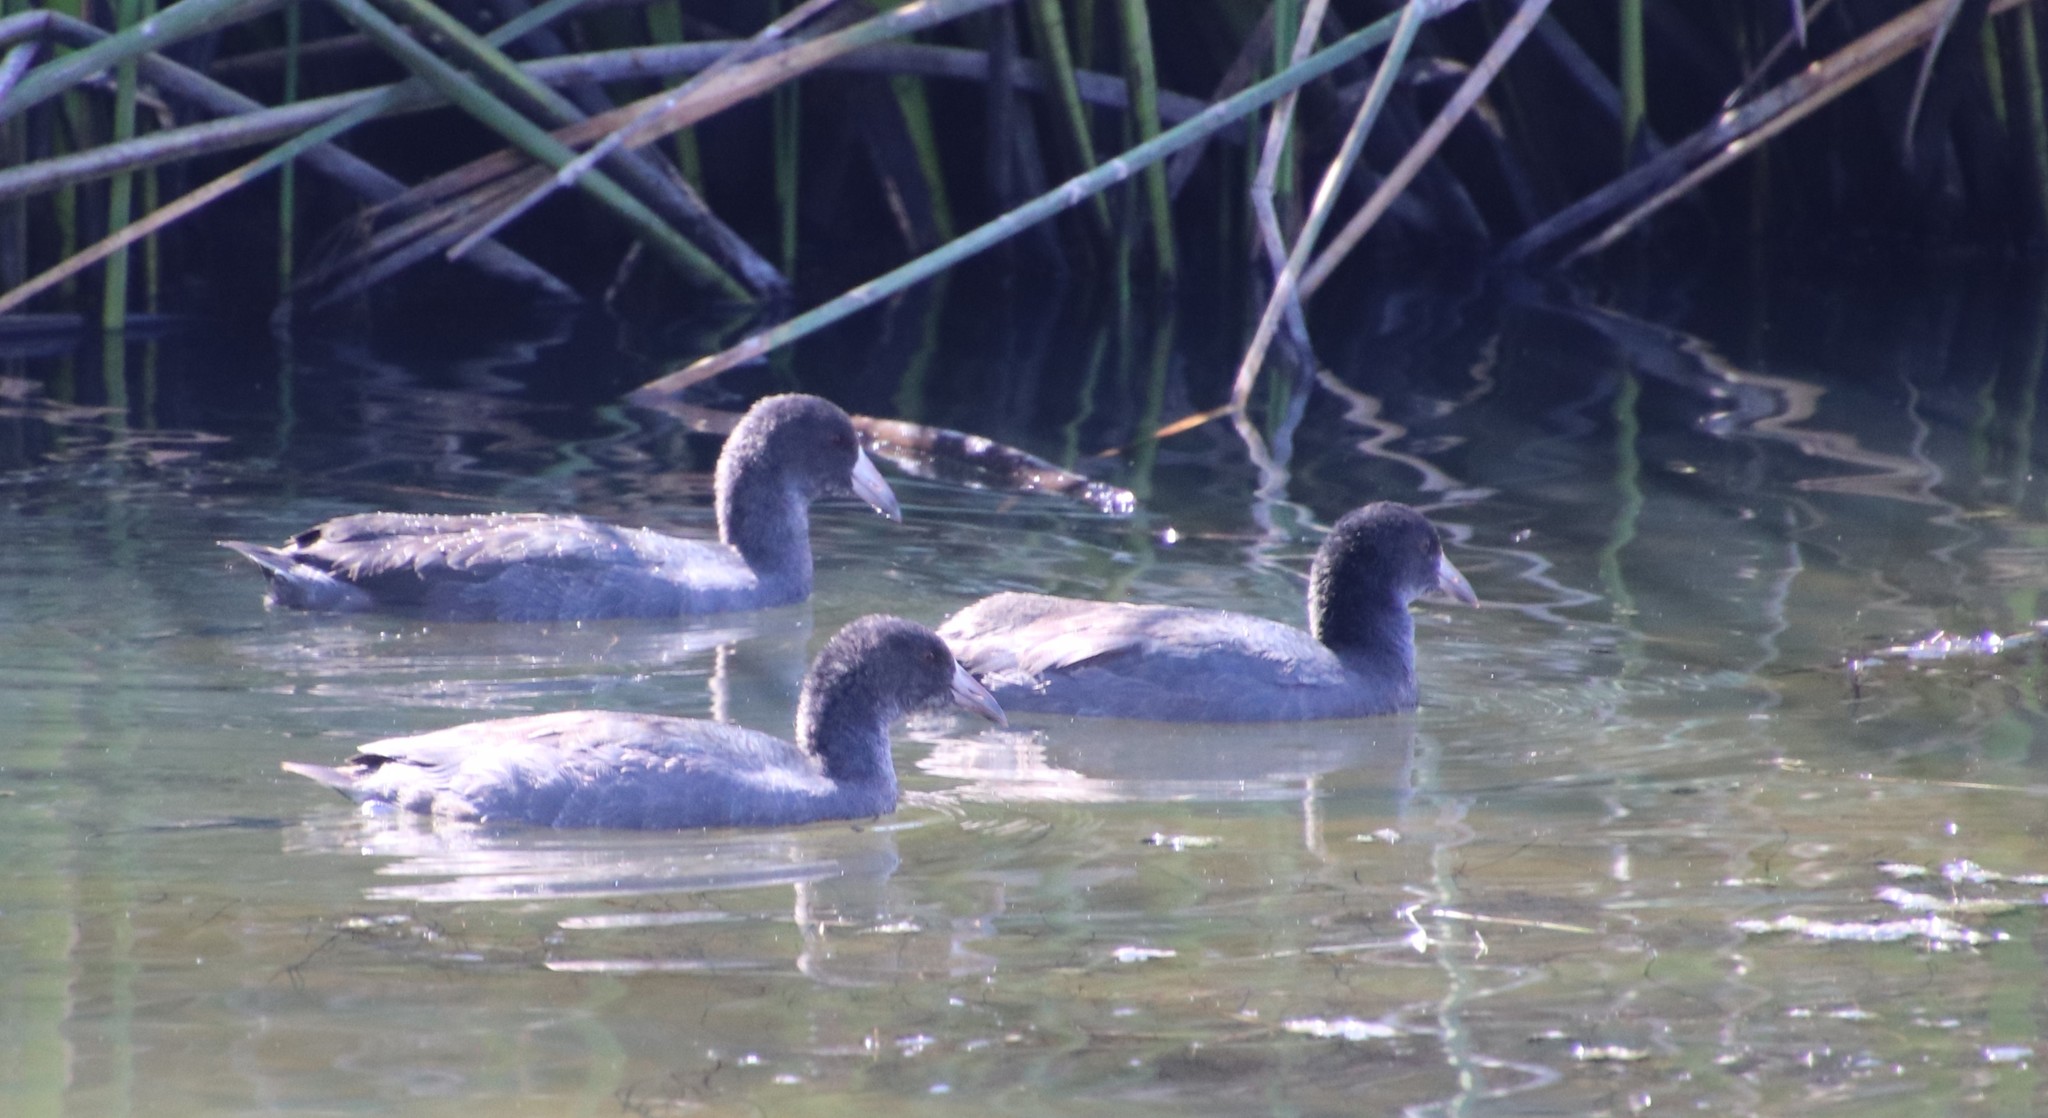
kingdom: Animalia
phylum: Chordata
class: Aves
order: Gruiformes
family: Rallidae
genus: Fulica
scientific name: Fulica americana
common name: American coot
